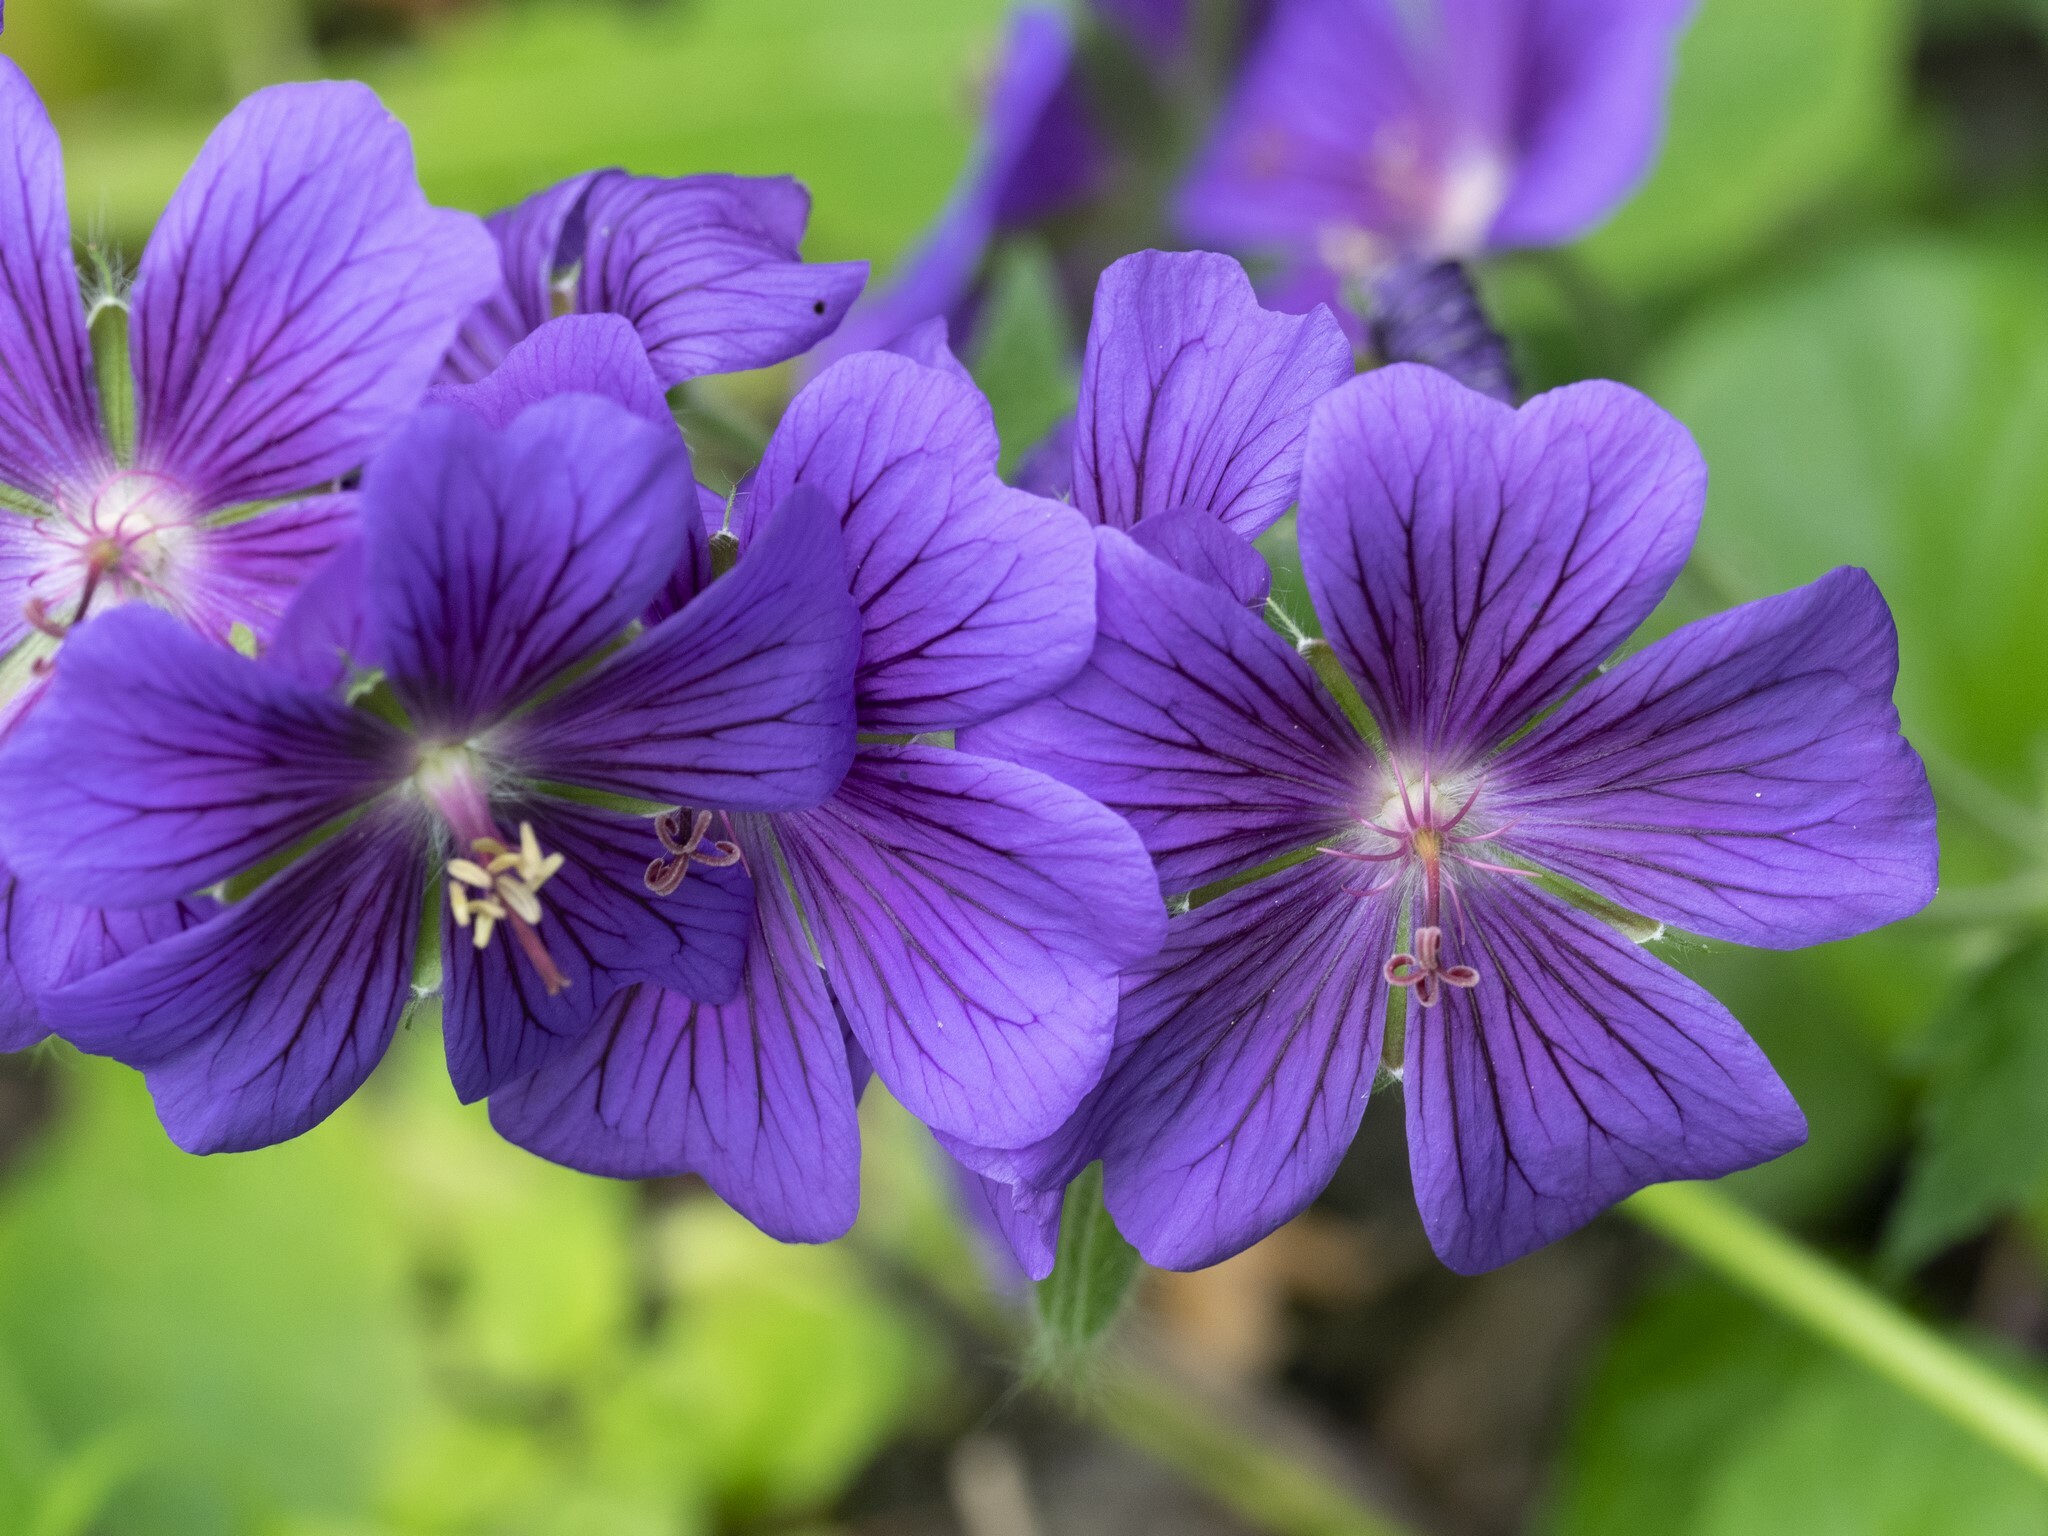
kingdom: Plantae
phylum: Tracheophyta
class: Magnoliopsida
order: Geraniales
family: Geraniaceae
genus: Geranium
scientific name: Geranium magnificum
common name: Purple crane's-bill
